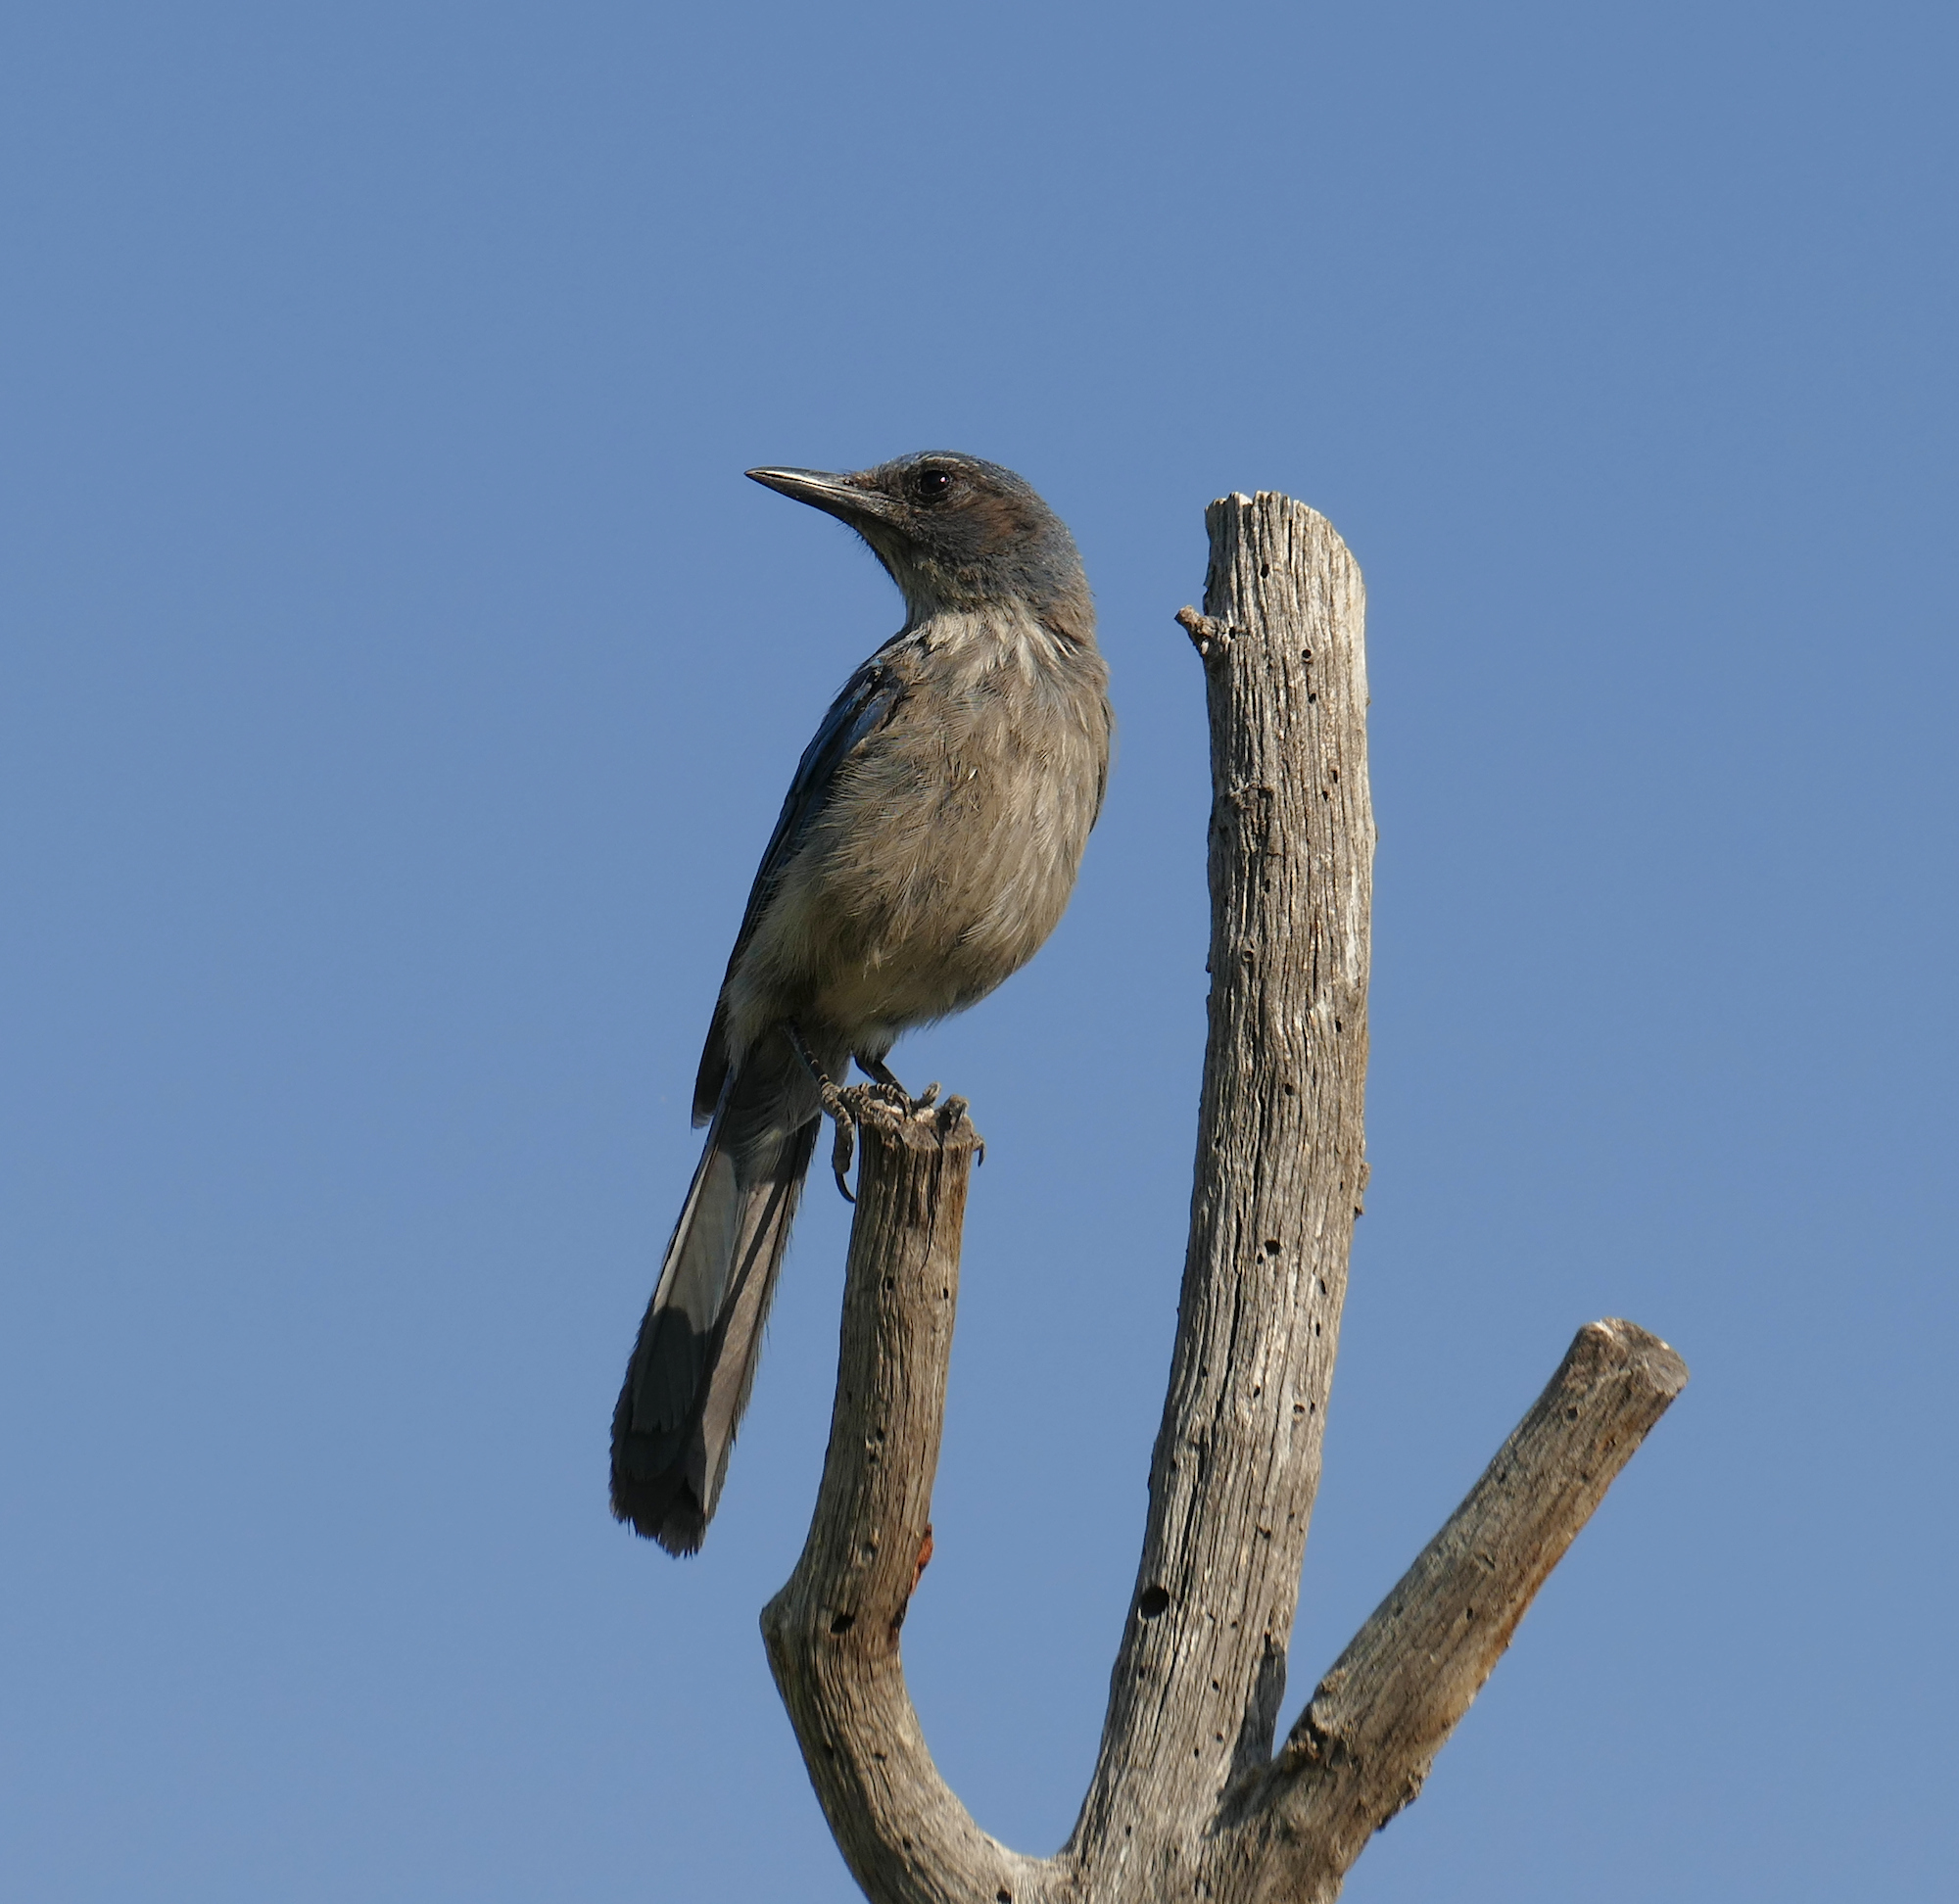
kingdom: Animalia
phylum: Chordata
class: Aves
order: Passeriformes
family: Corvidae
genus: Aphelocoma
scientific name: Aphelocoma woodhouseii
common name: Woodhouse's scrub-jay
